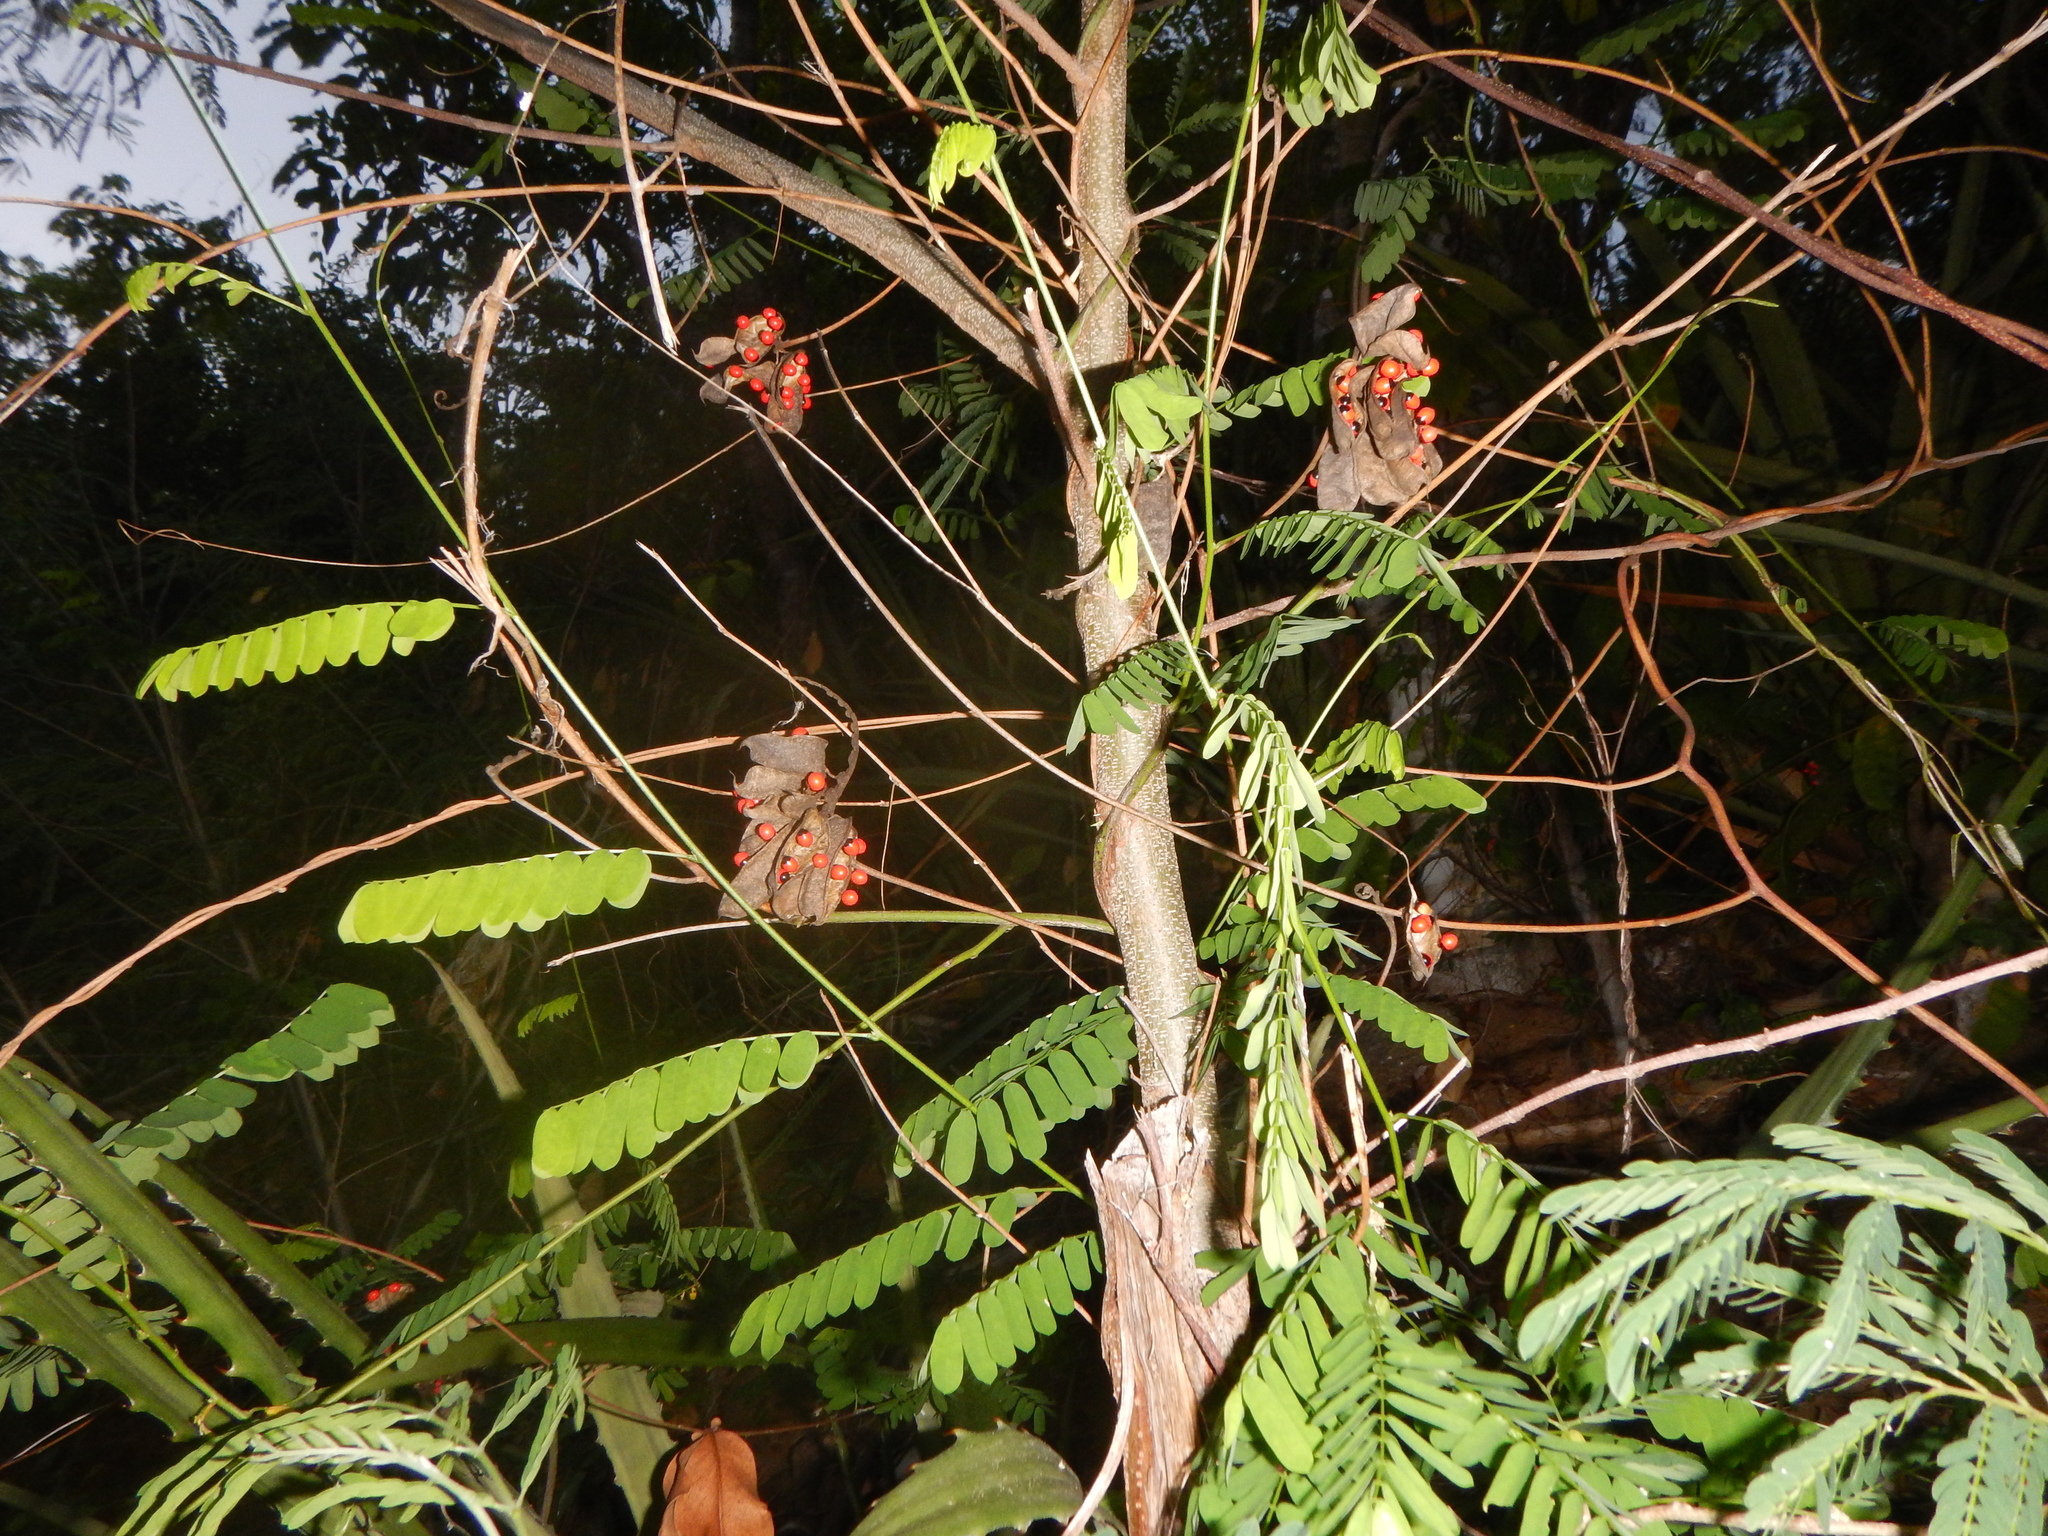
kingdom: Plantae
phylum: Tracheophyta
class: Magnoliopsida
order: Fabales
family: Fabaceae
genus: Abrus
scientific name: Abrus precatorius
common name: Rosarypea
